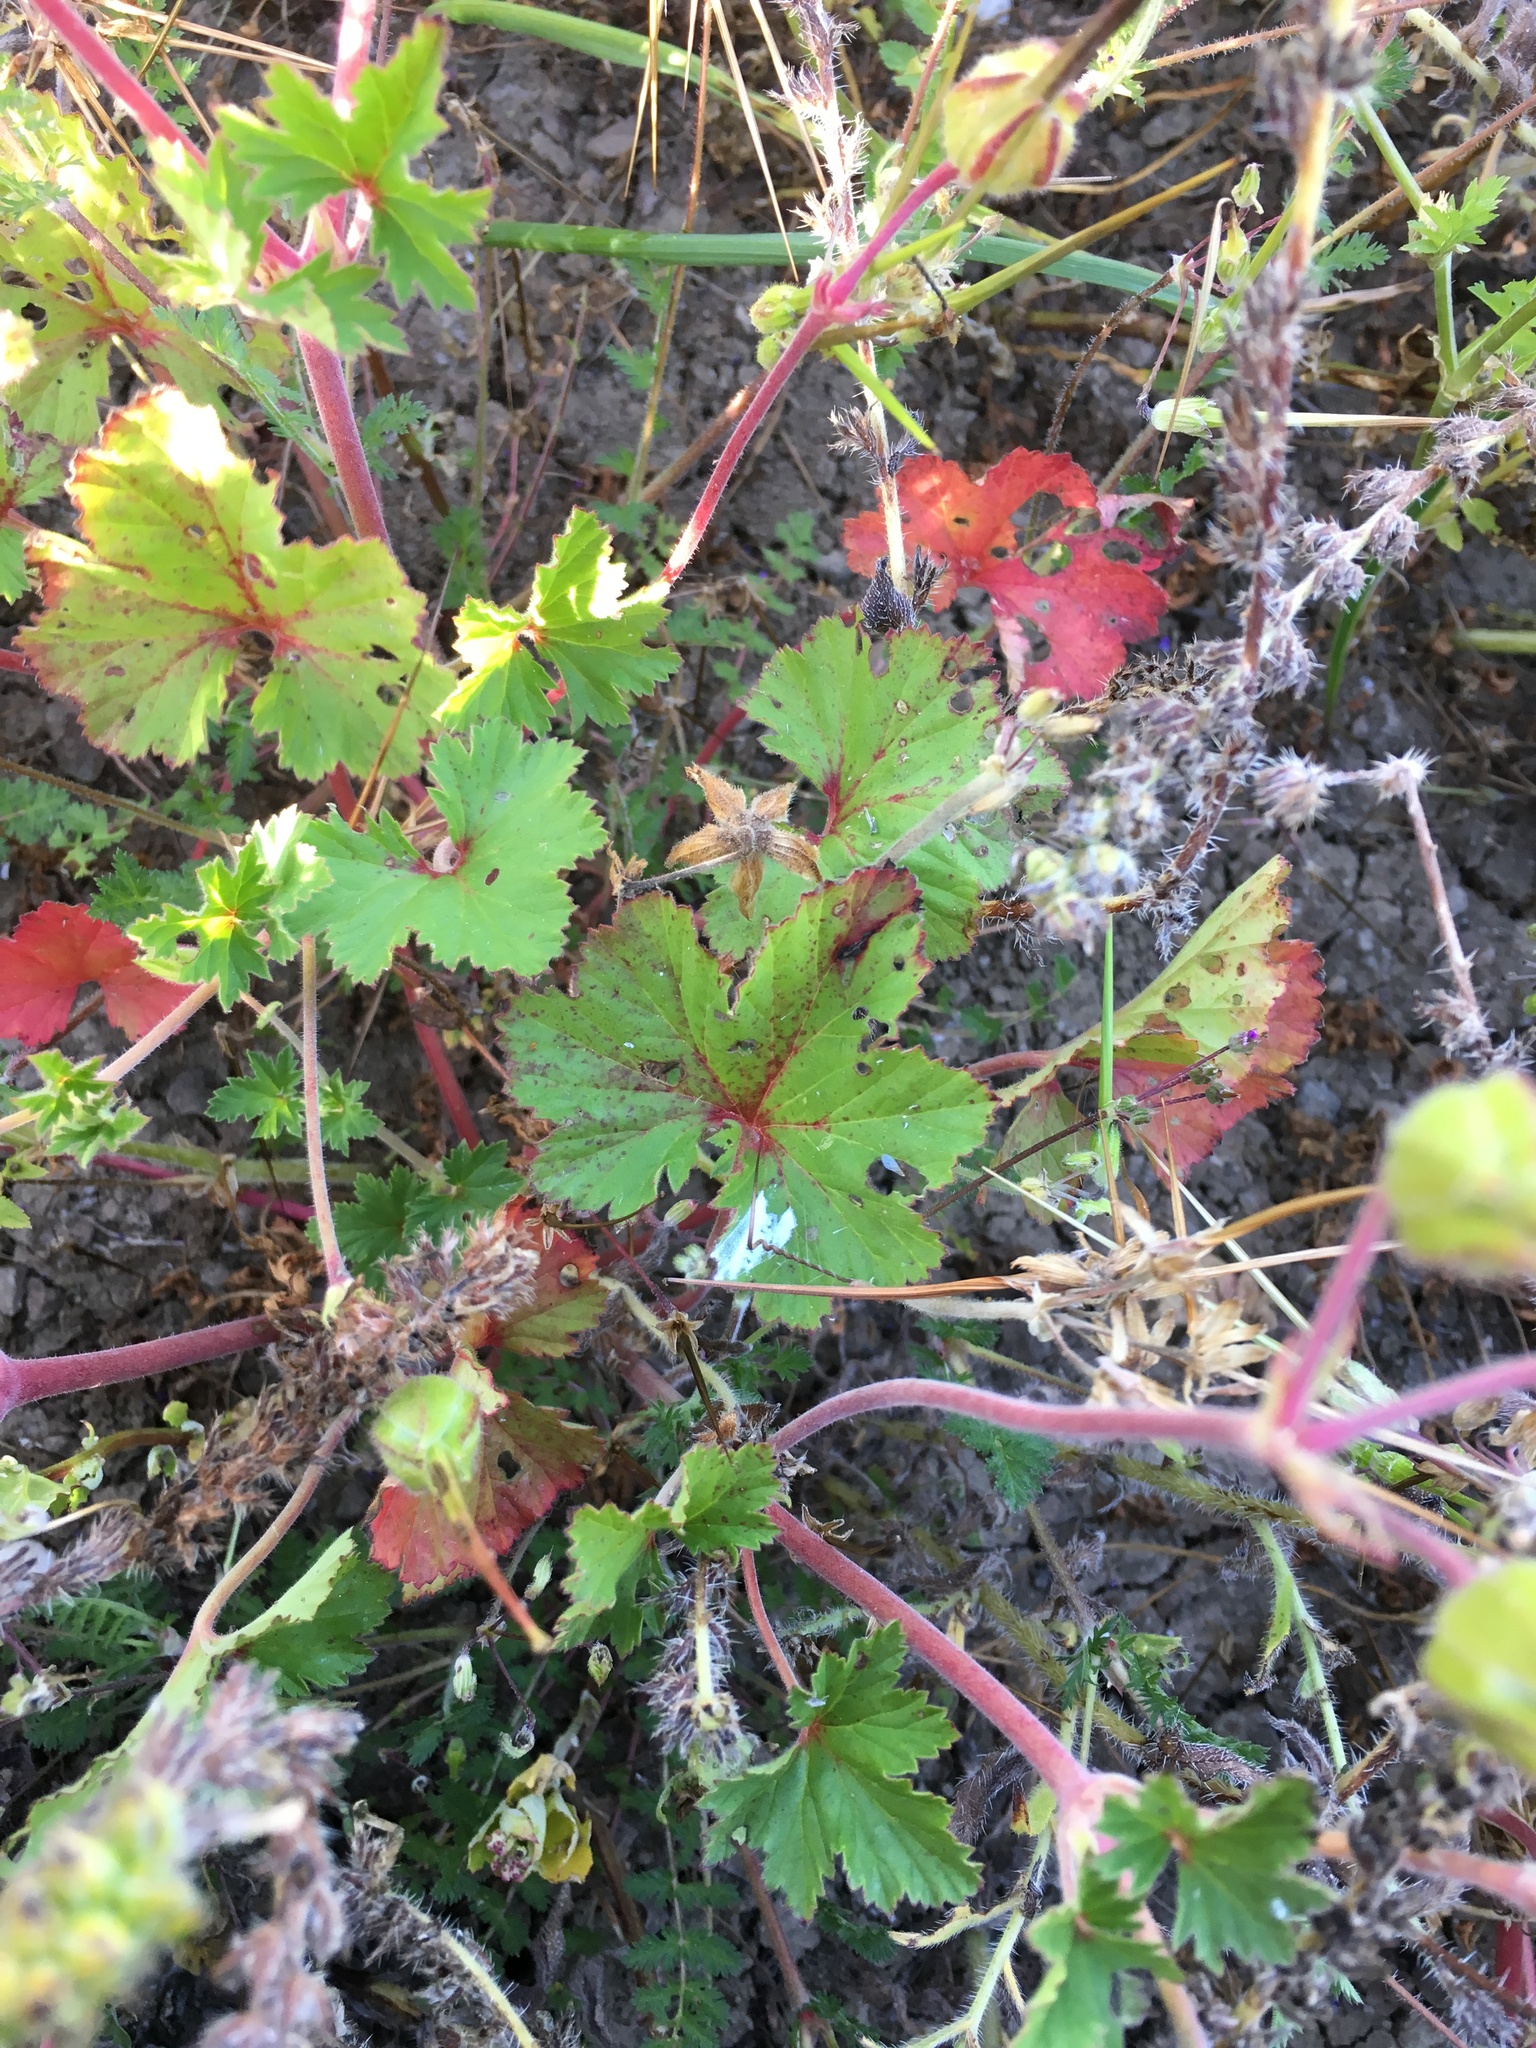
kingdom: Plantae
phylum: Tracheophyta
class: Magnoliopsida
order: Geraniales
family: Geraniaceae
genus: California
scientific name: California macrophylla
